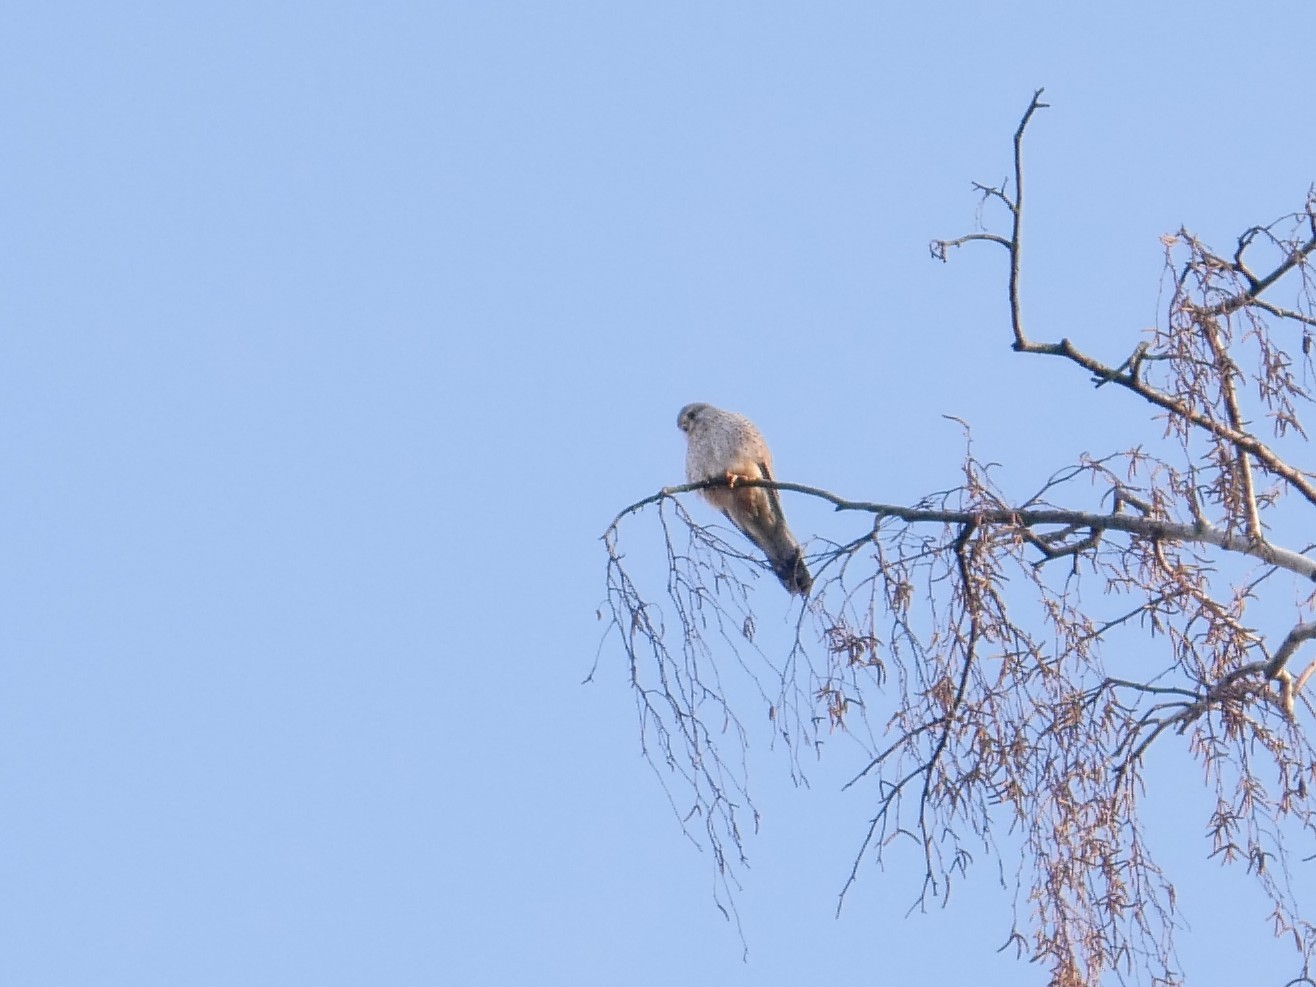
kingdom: Animalia
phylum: Chordata
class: Aves
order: Falconiformes
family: Falconidae
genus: Falco
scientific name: Falco tinnunculus
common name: Common kestrel
